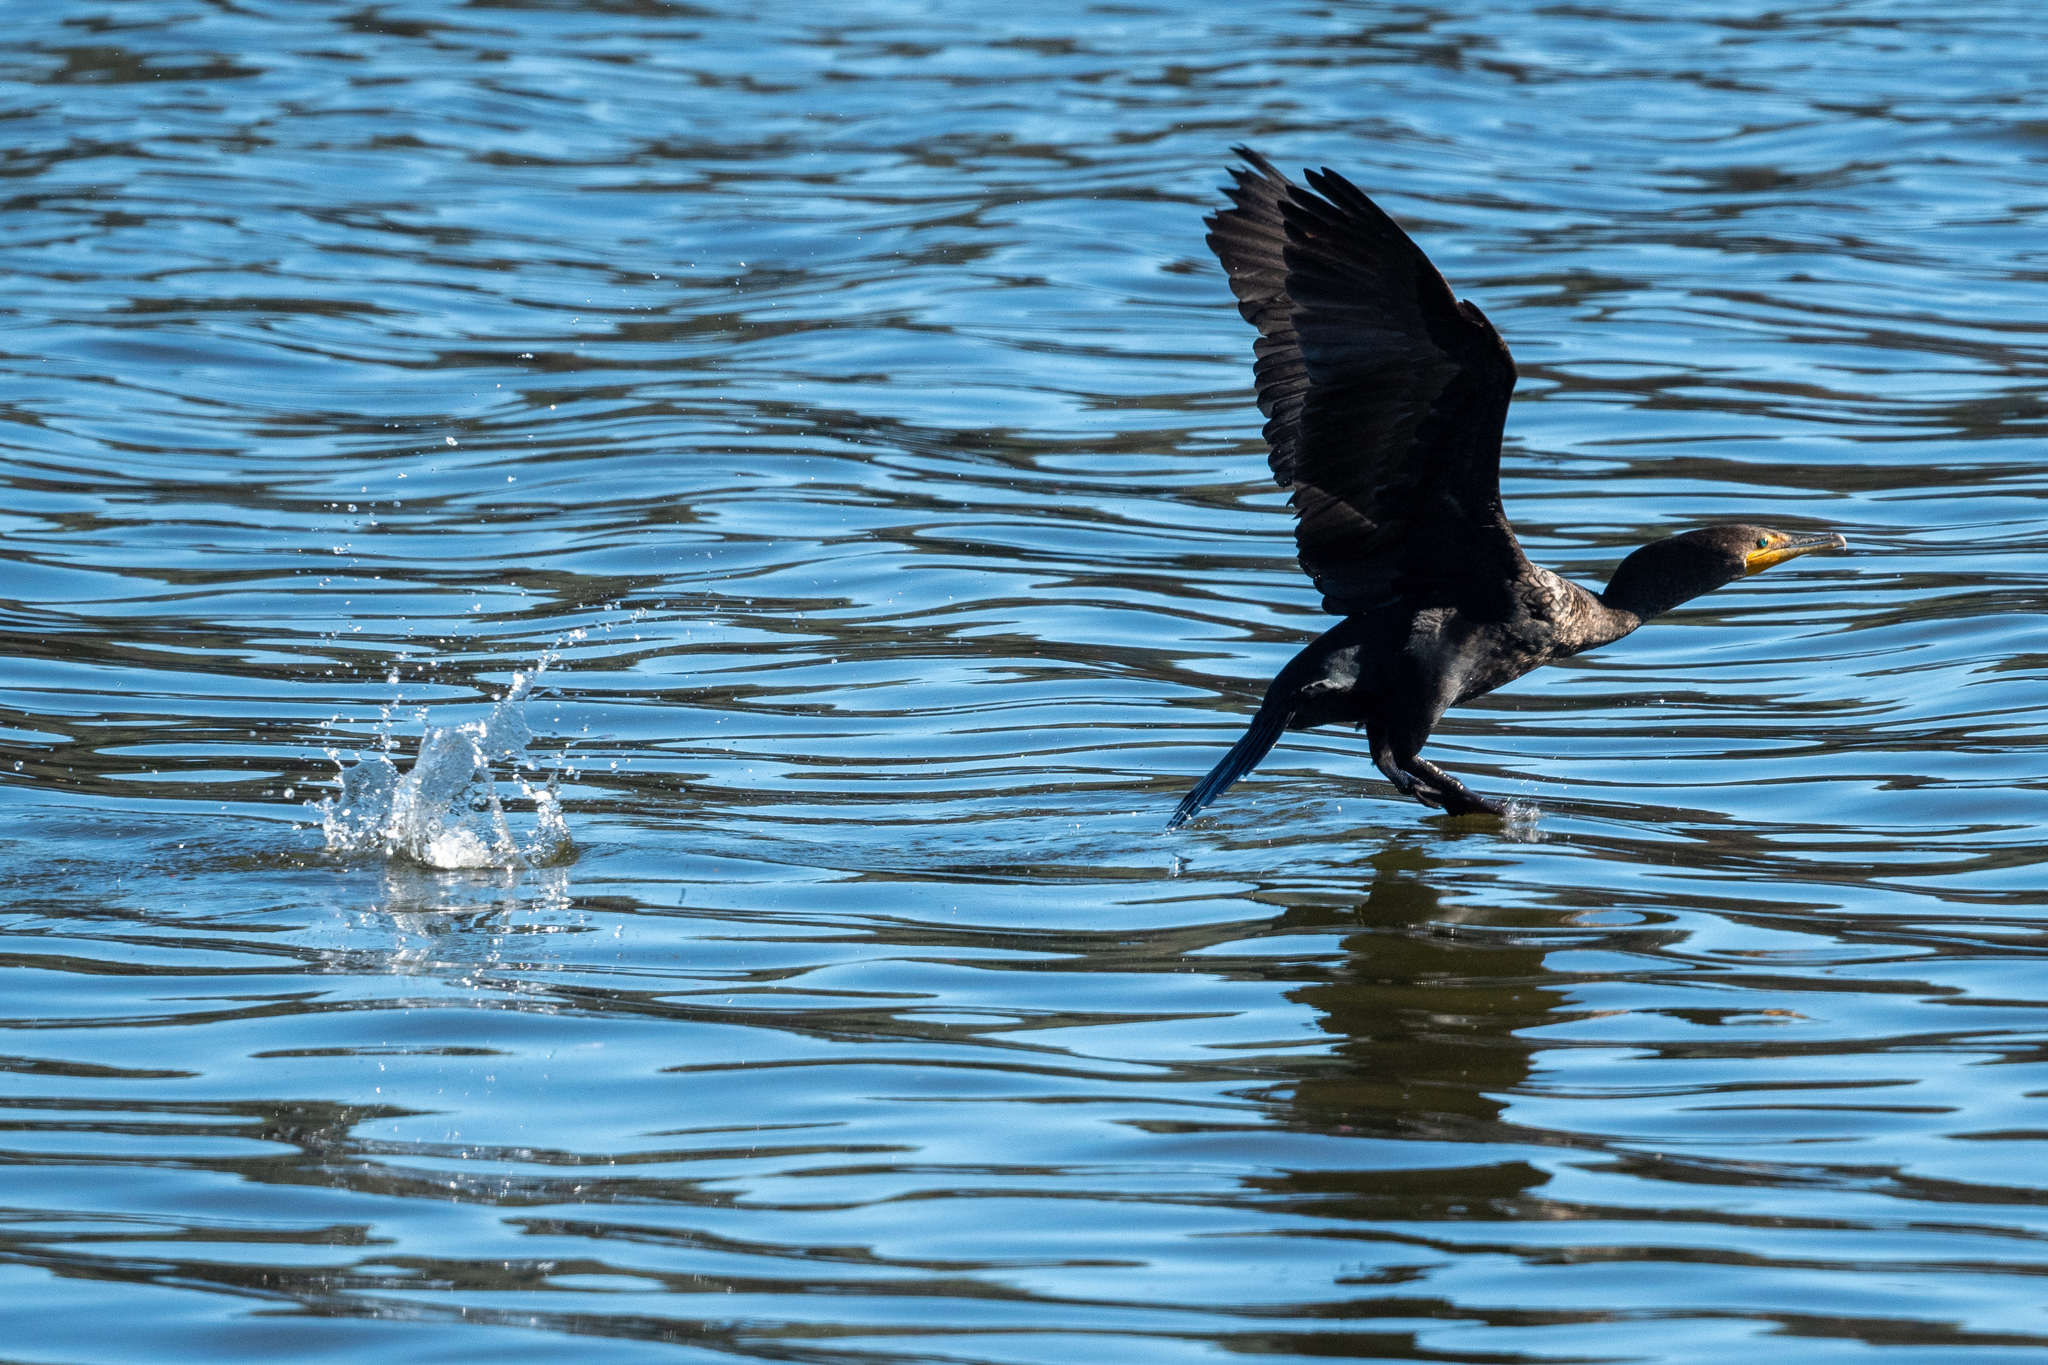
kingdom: Animalia
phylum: Chordata
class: Aves
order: Suliformes
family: Phalacrocoracidae
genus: Phalacrocorax
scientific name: Phalacrocorax auritus
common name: Double-crested cormorant
